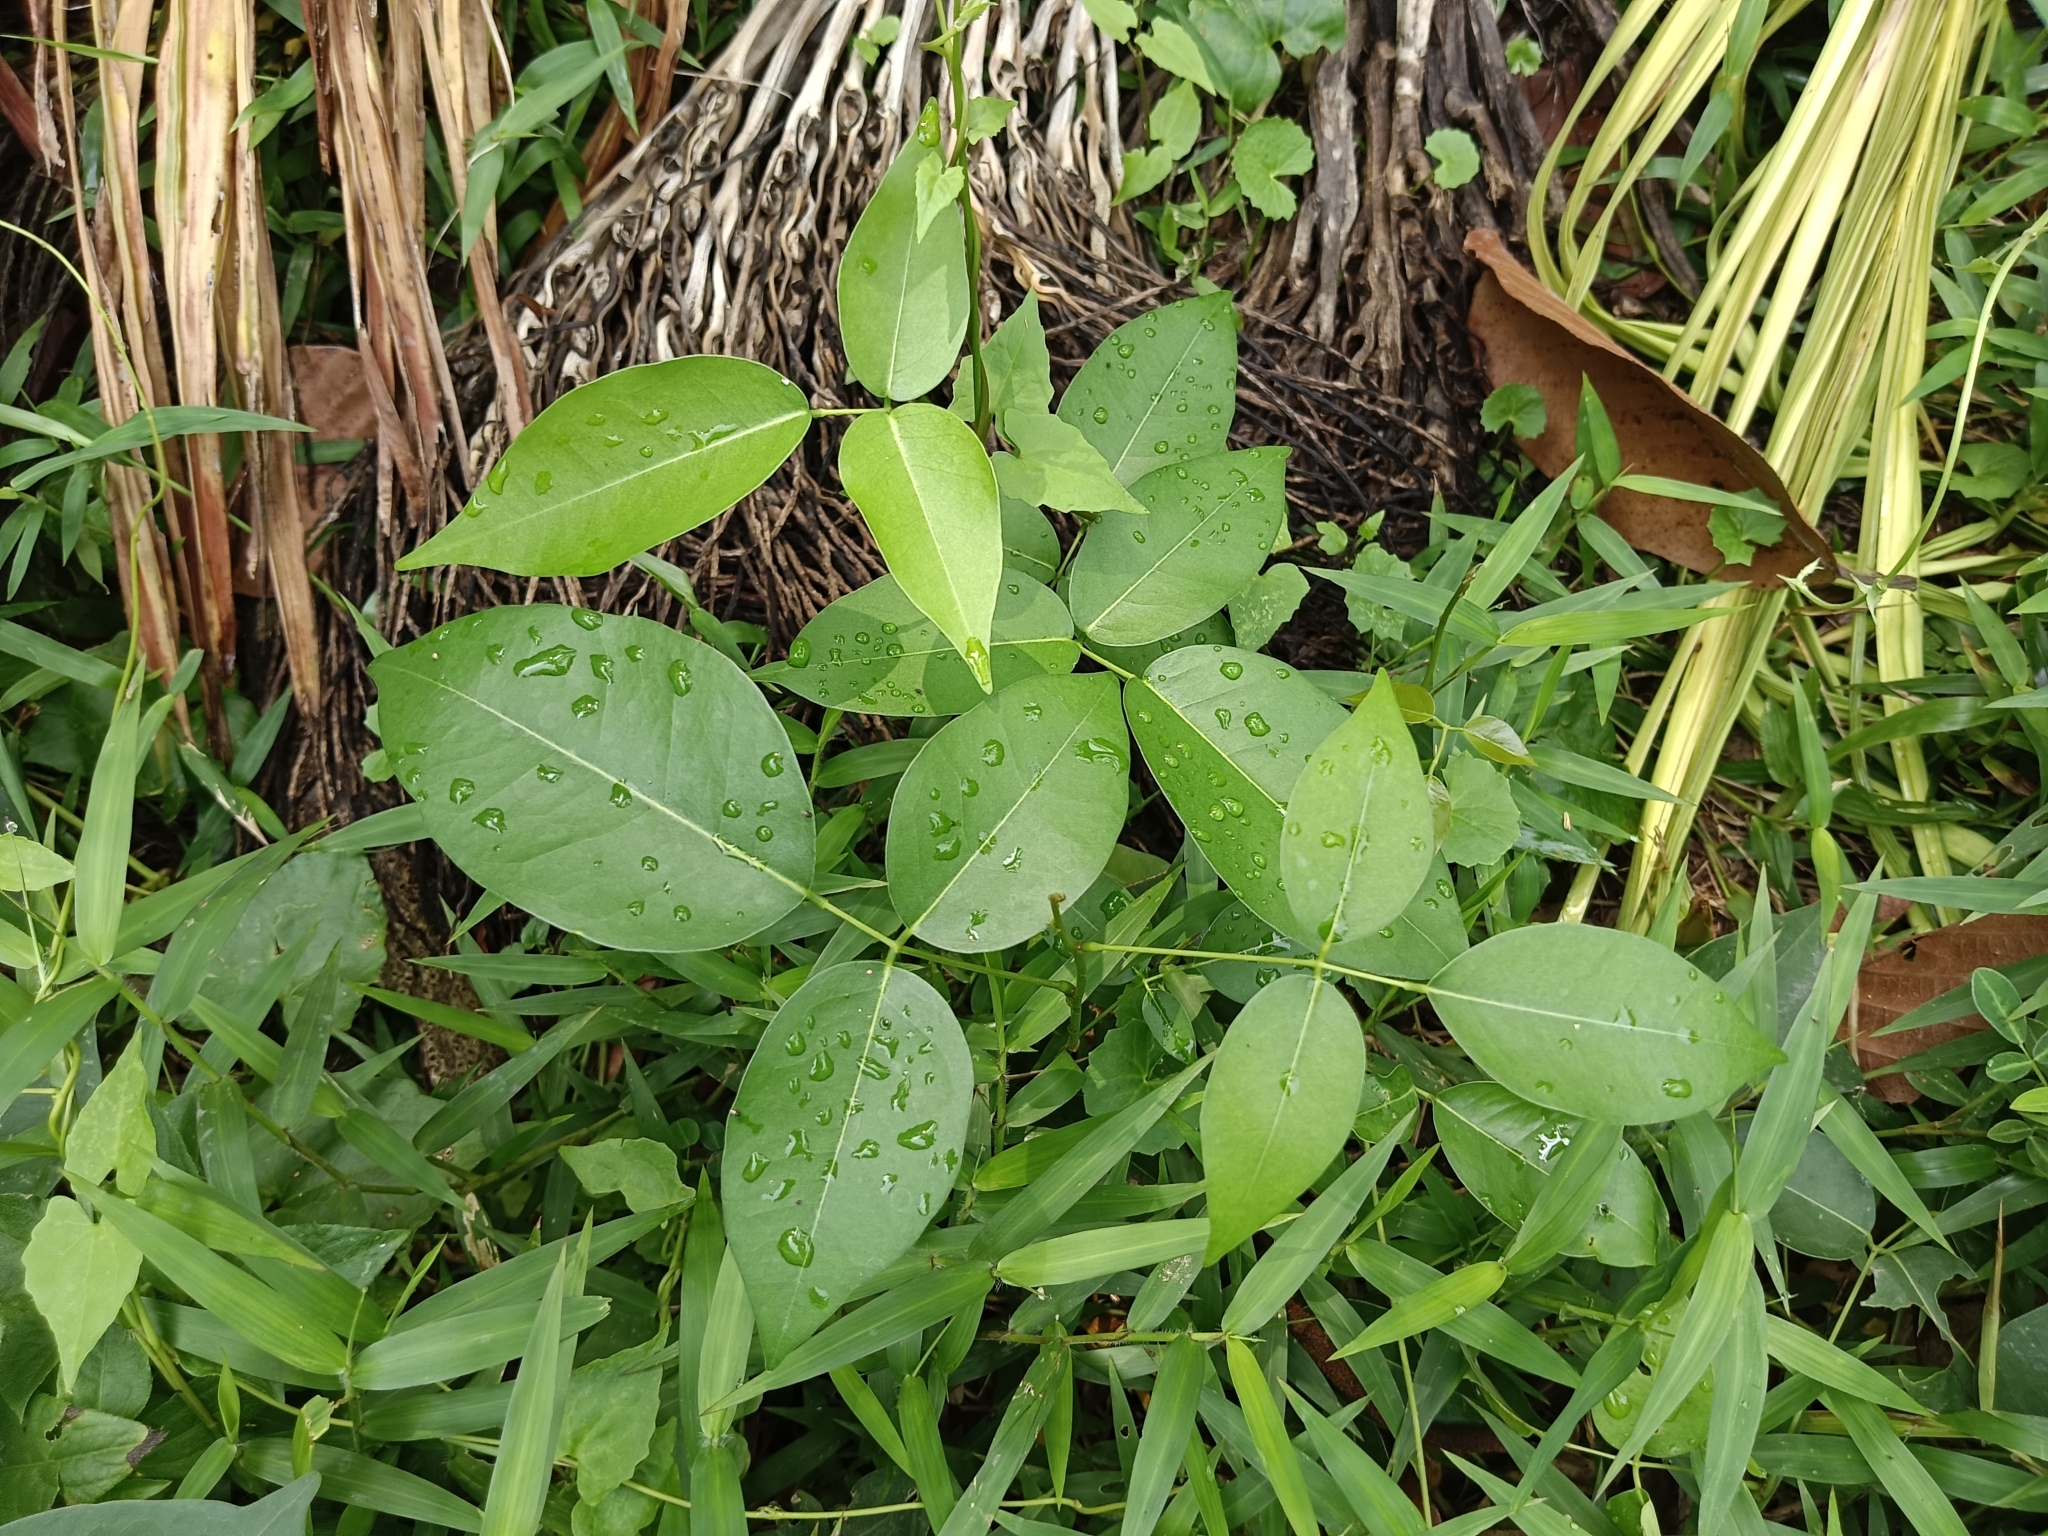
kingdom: Plantae
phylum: Tracheophyta
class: Magnoliopsida
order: Fabales
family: Fabaceae
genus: Derris
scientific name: Derris trifoliata
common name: Three-leaf derris
